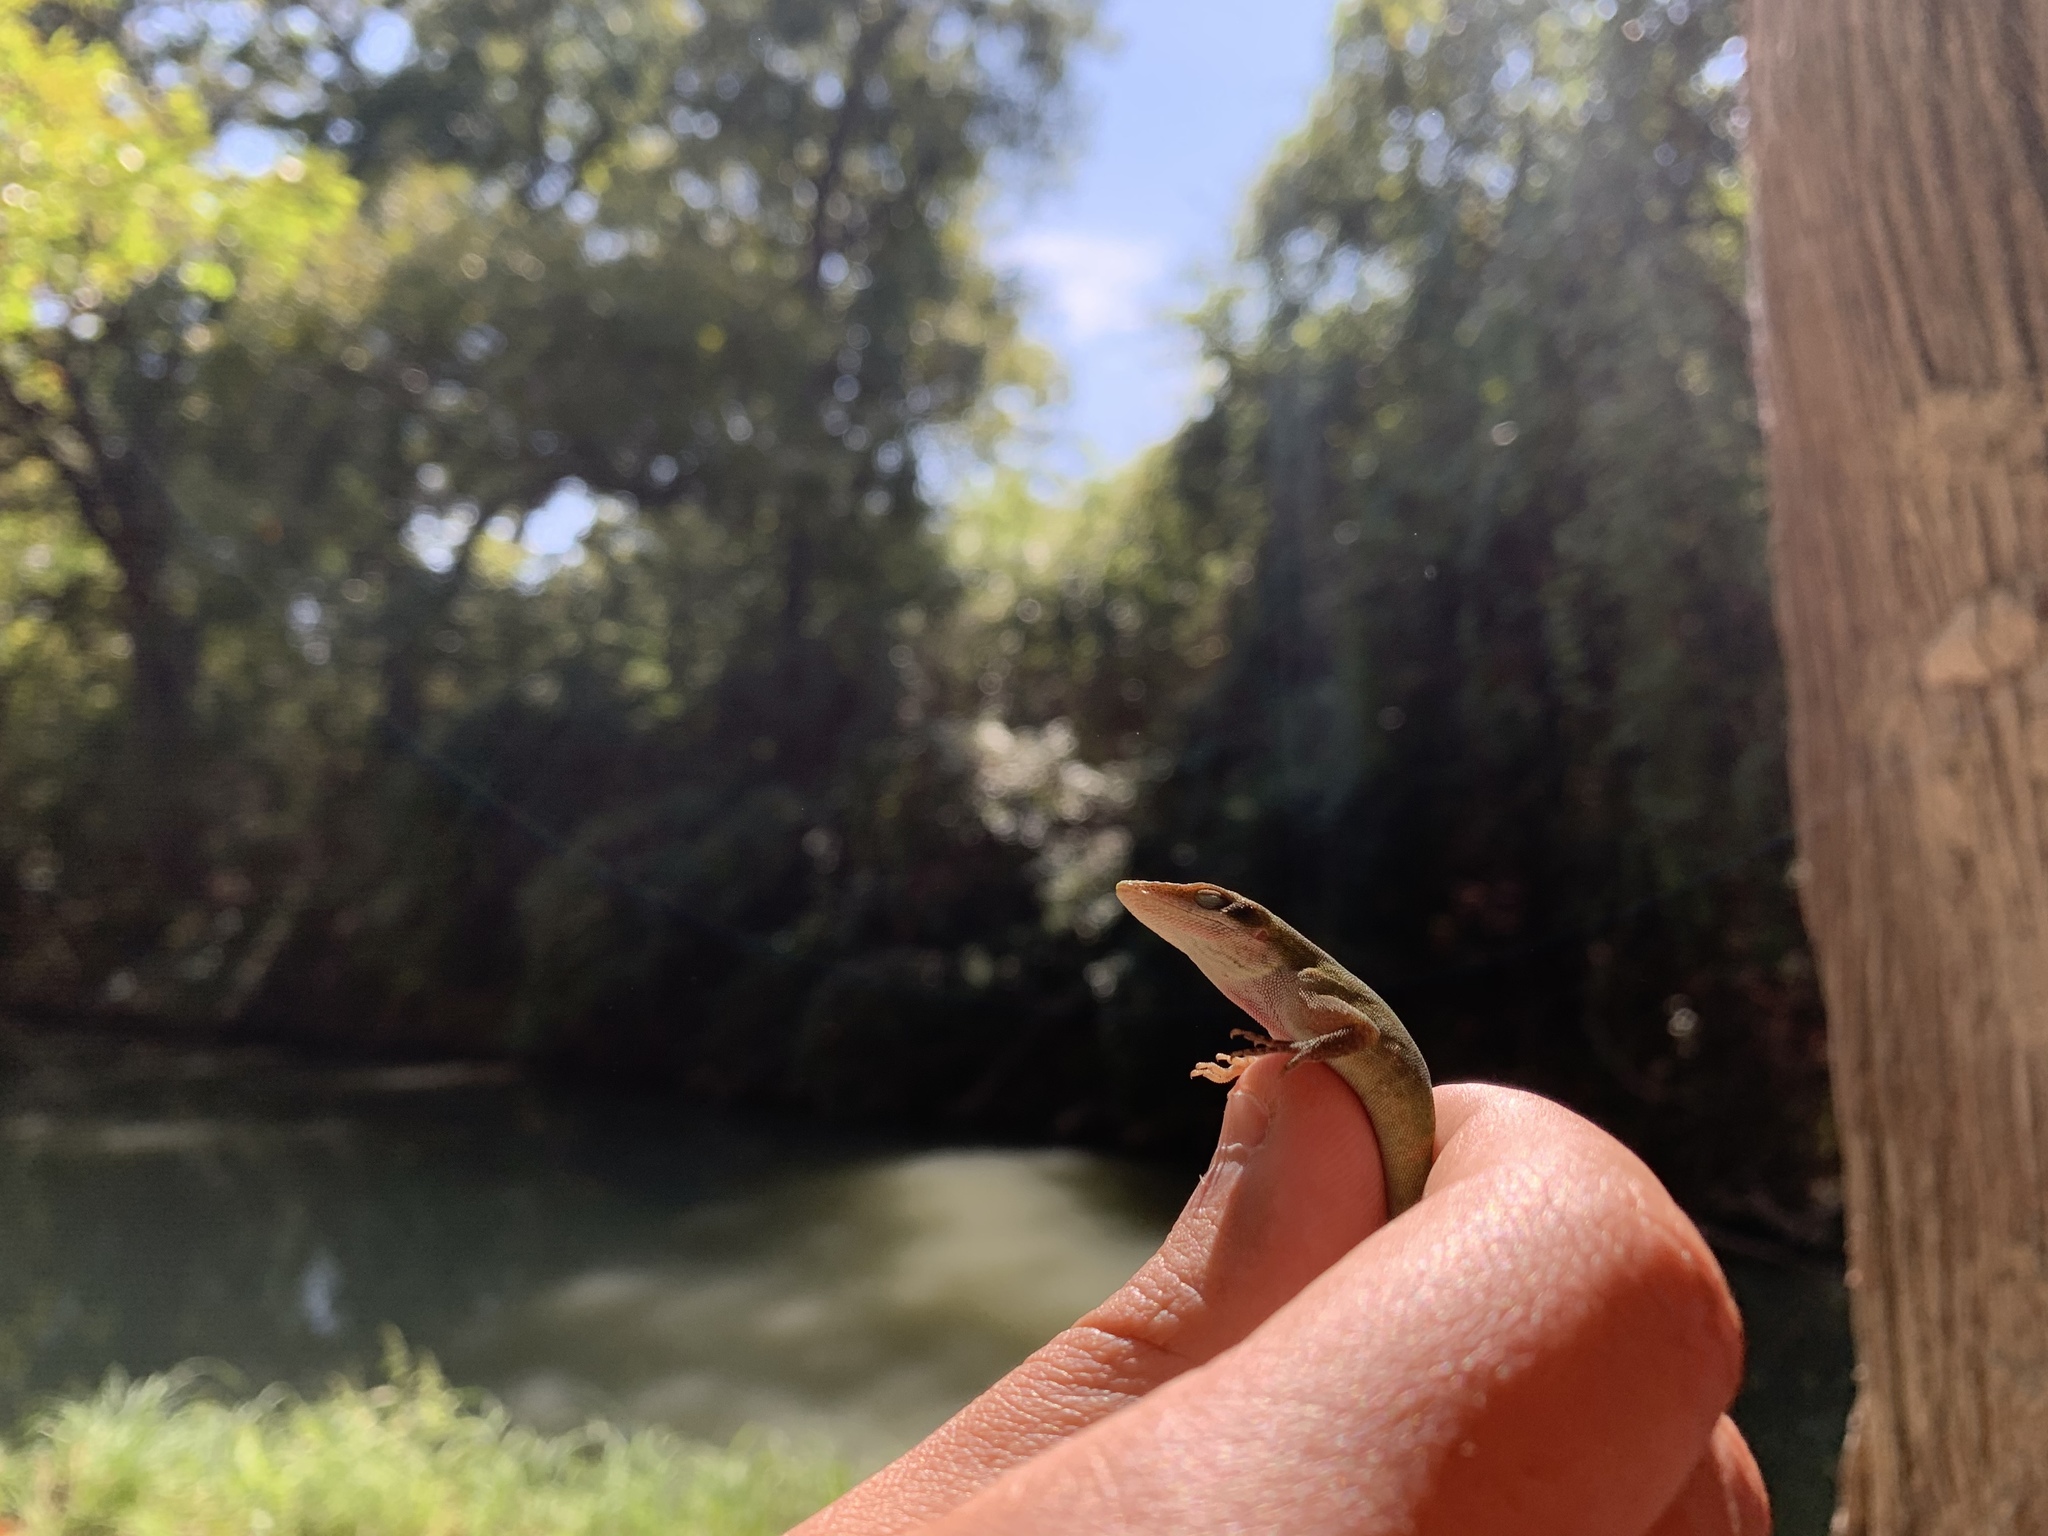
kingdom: Animalia
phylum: Chordata
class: Squamata
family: Dactyloidae
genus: Anolis
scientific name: Anolis carolinensis
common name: Green anole
